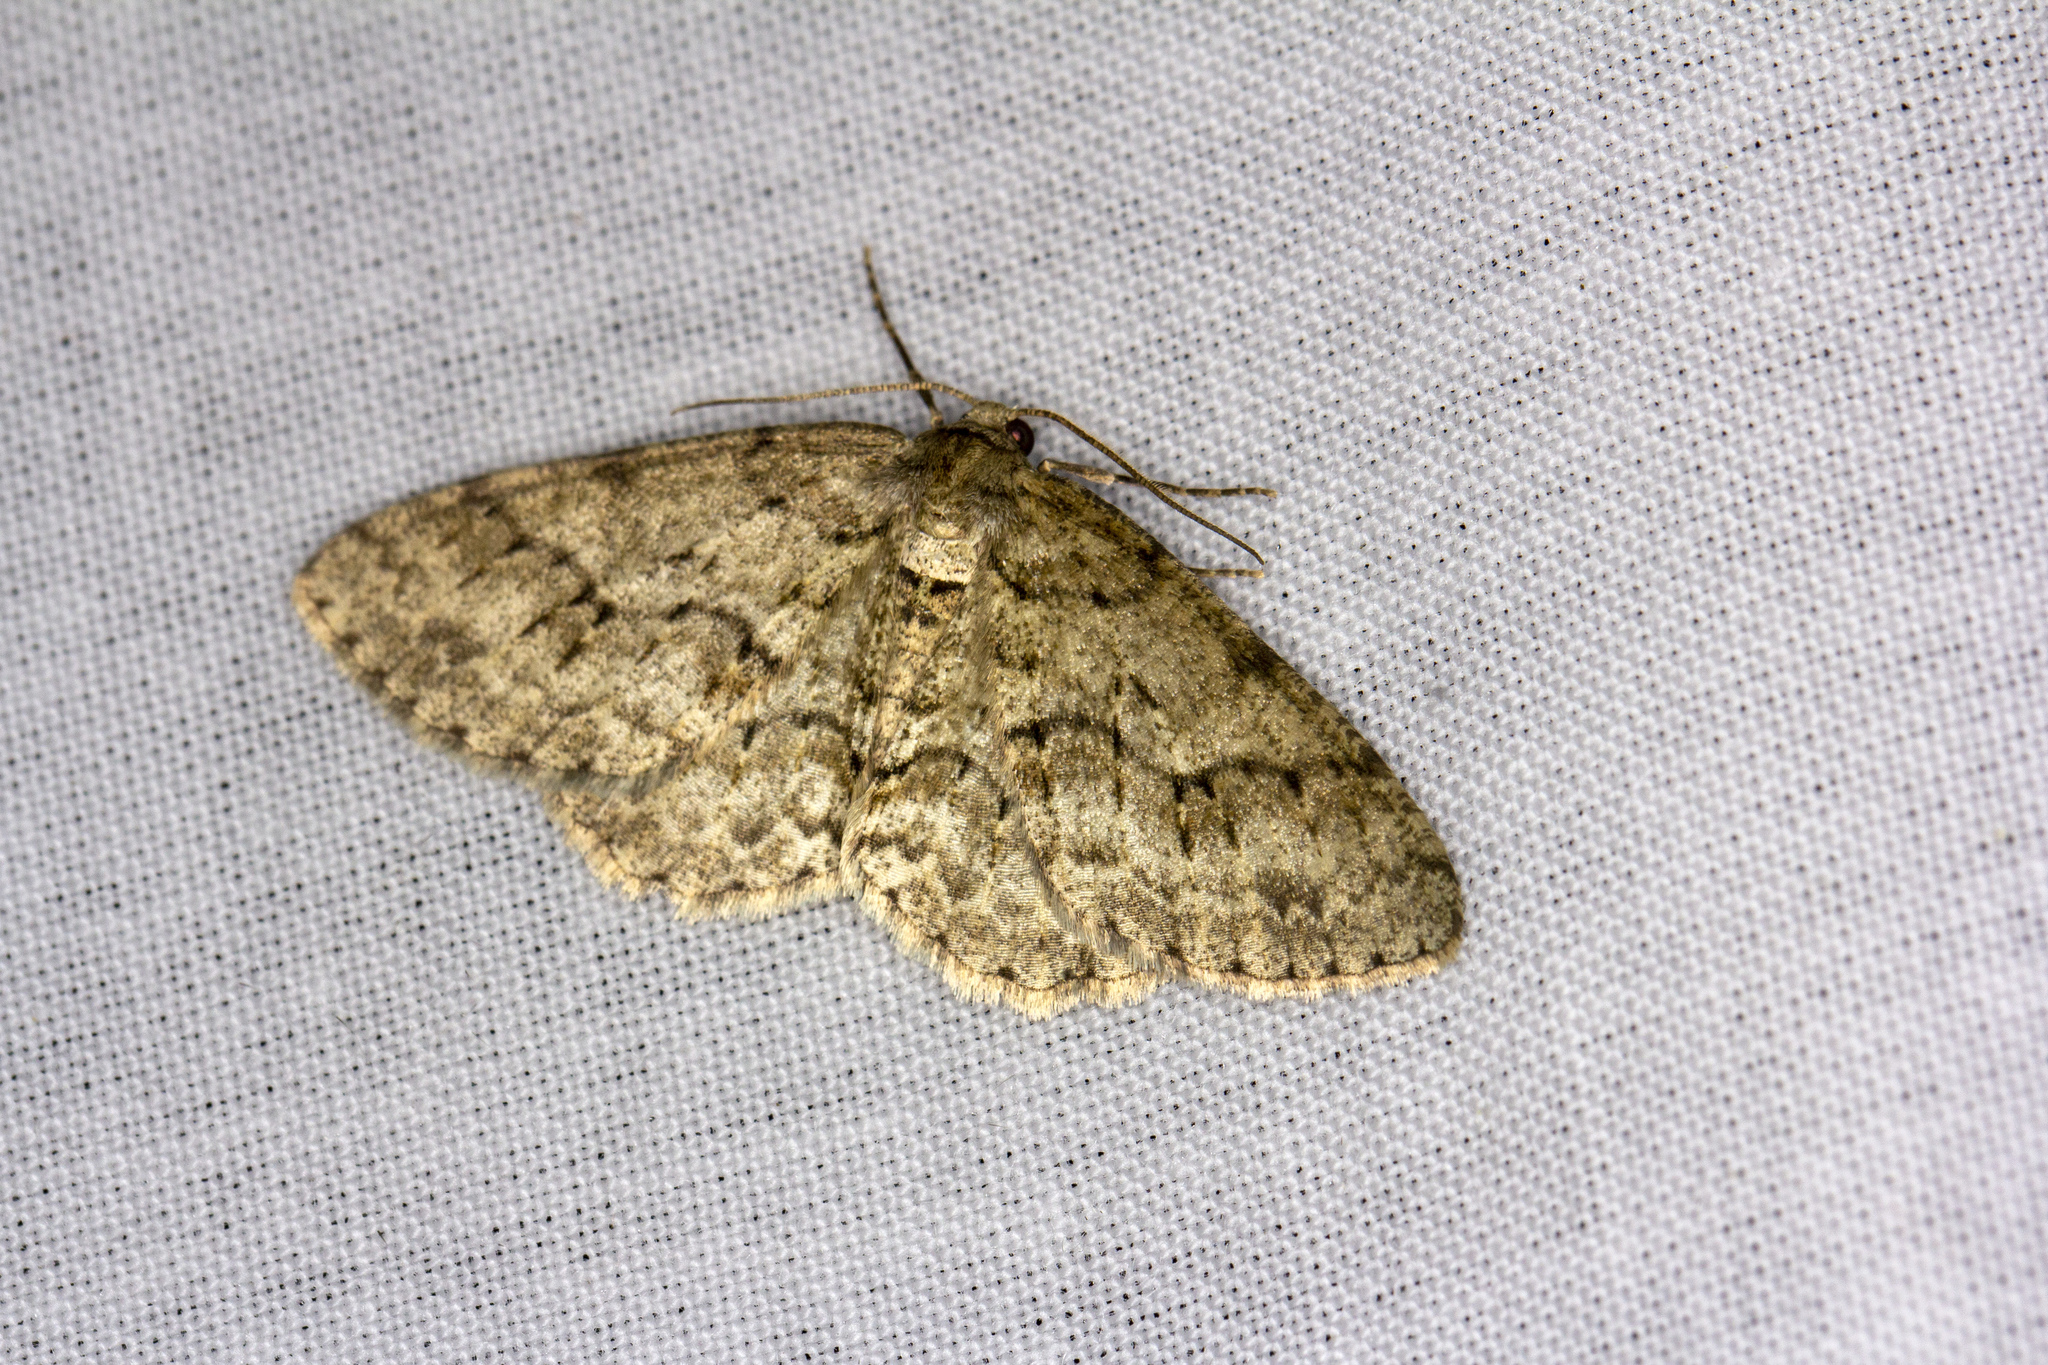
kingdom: Animalia
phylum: Arthropoda
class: Insecta
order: Lepidoptera
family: Geometridae
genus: Ectropis
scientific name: Ectropis crepuscularia
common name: Engrailed
